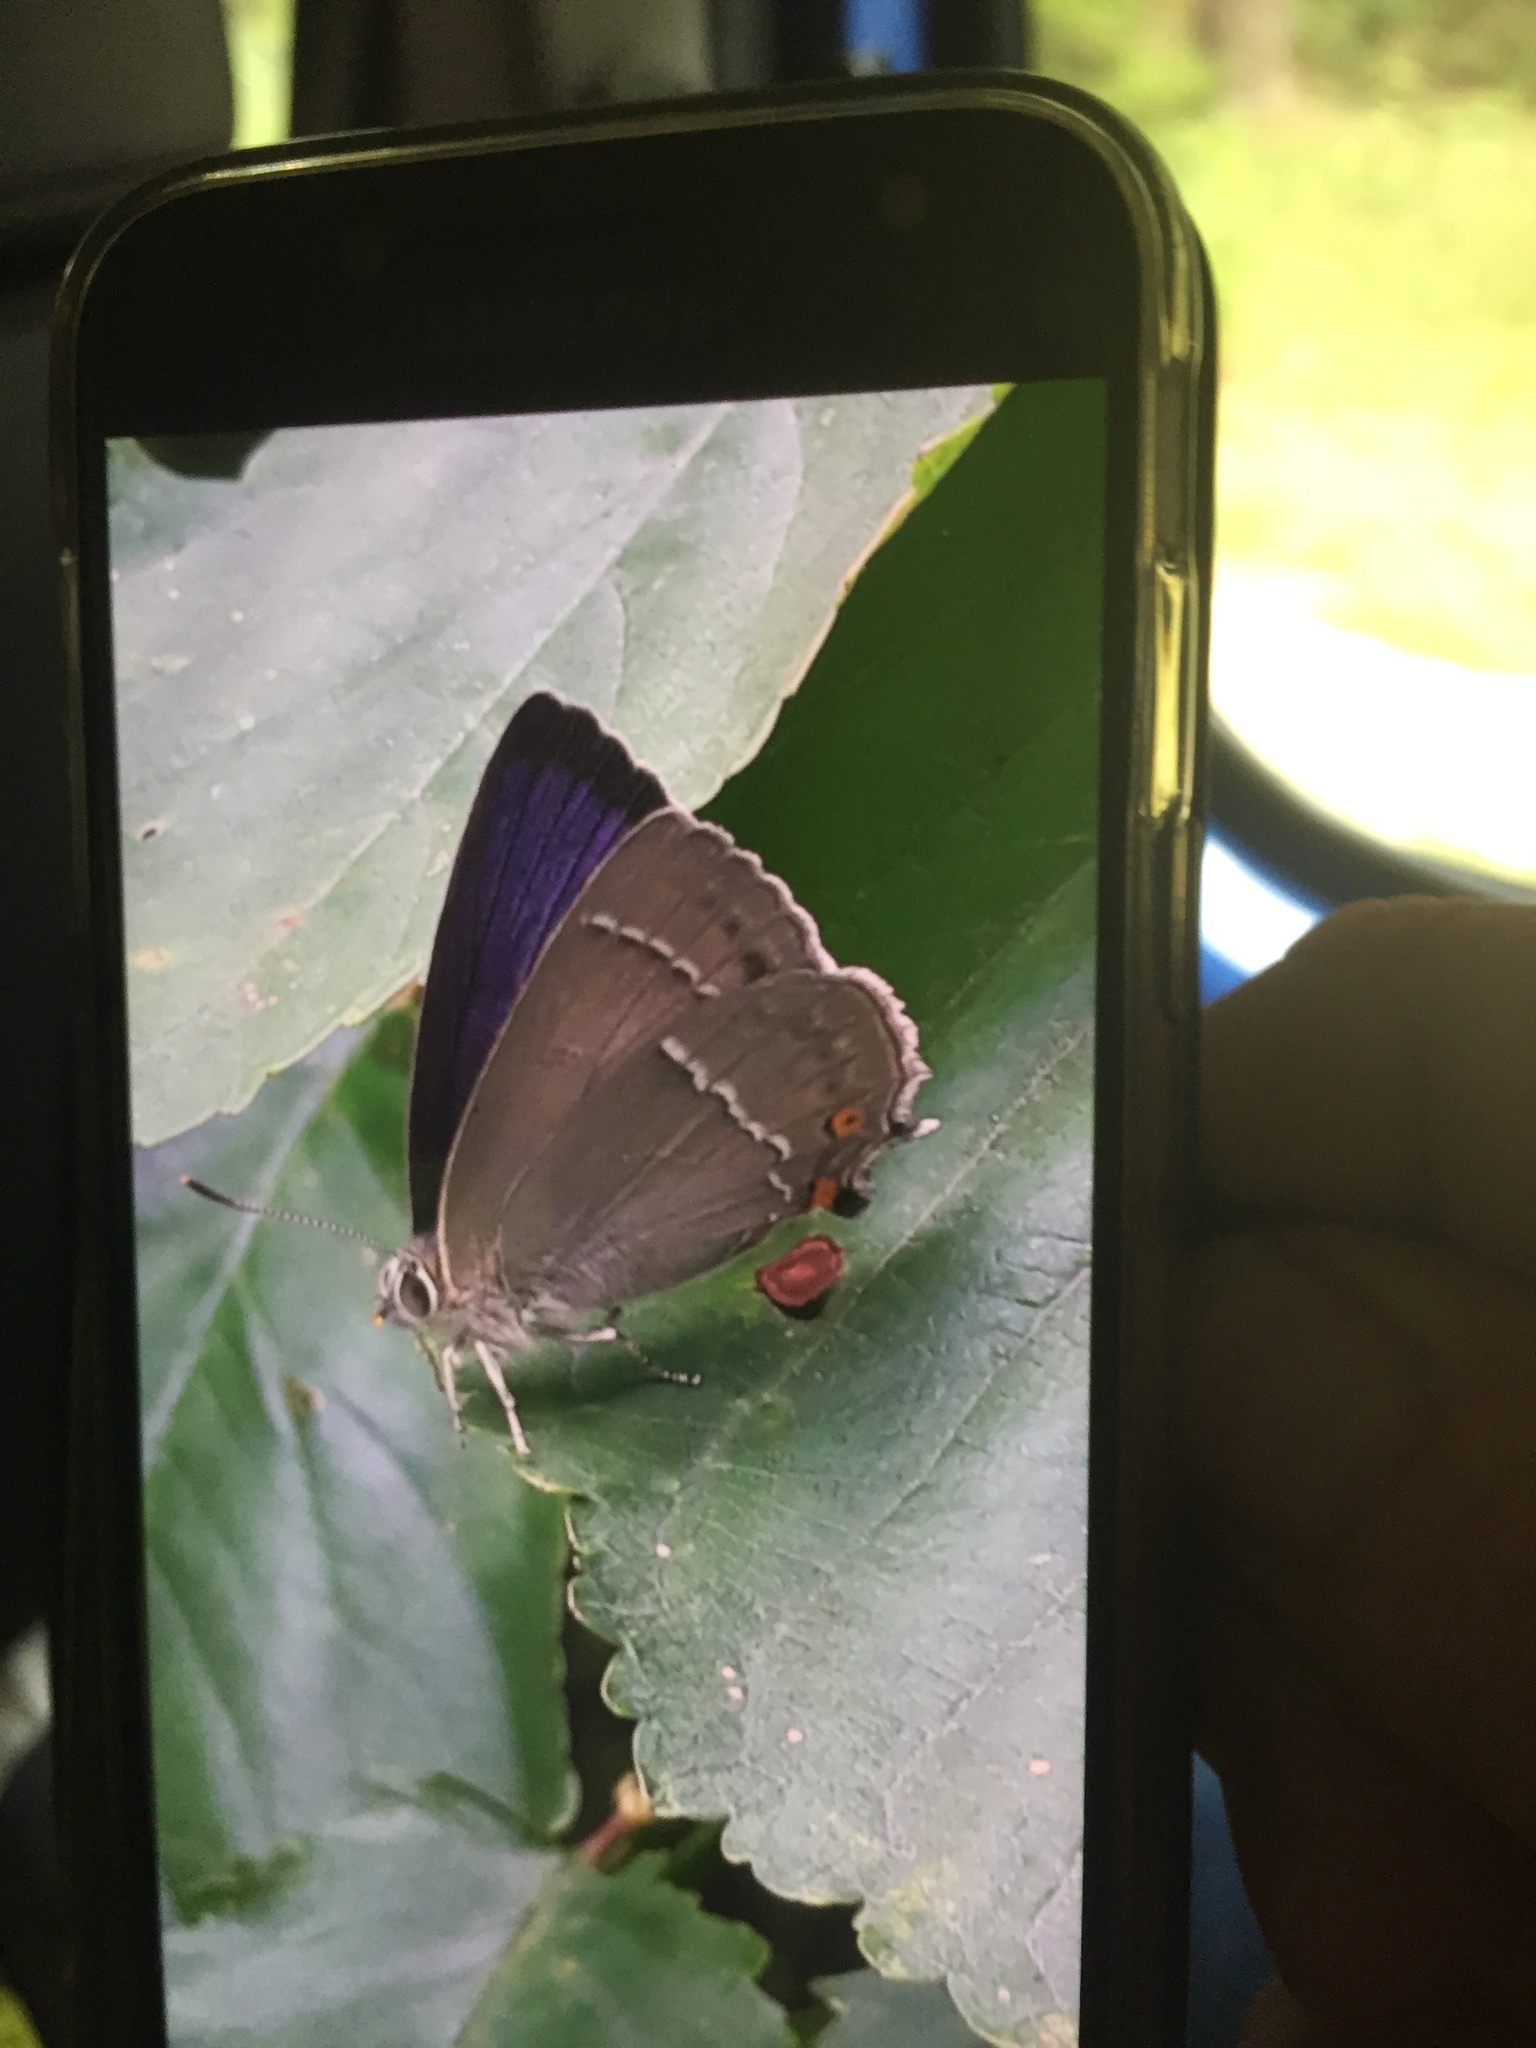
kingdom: Animalia
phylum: Arthropoda
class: Insecta
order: Lepidoptera
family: Lycaenidae
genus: Quercusia
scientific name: Quercusia quercus
